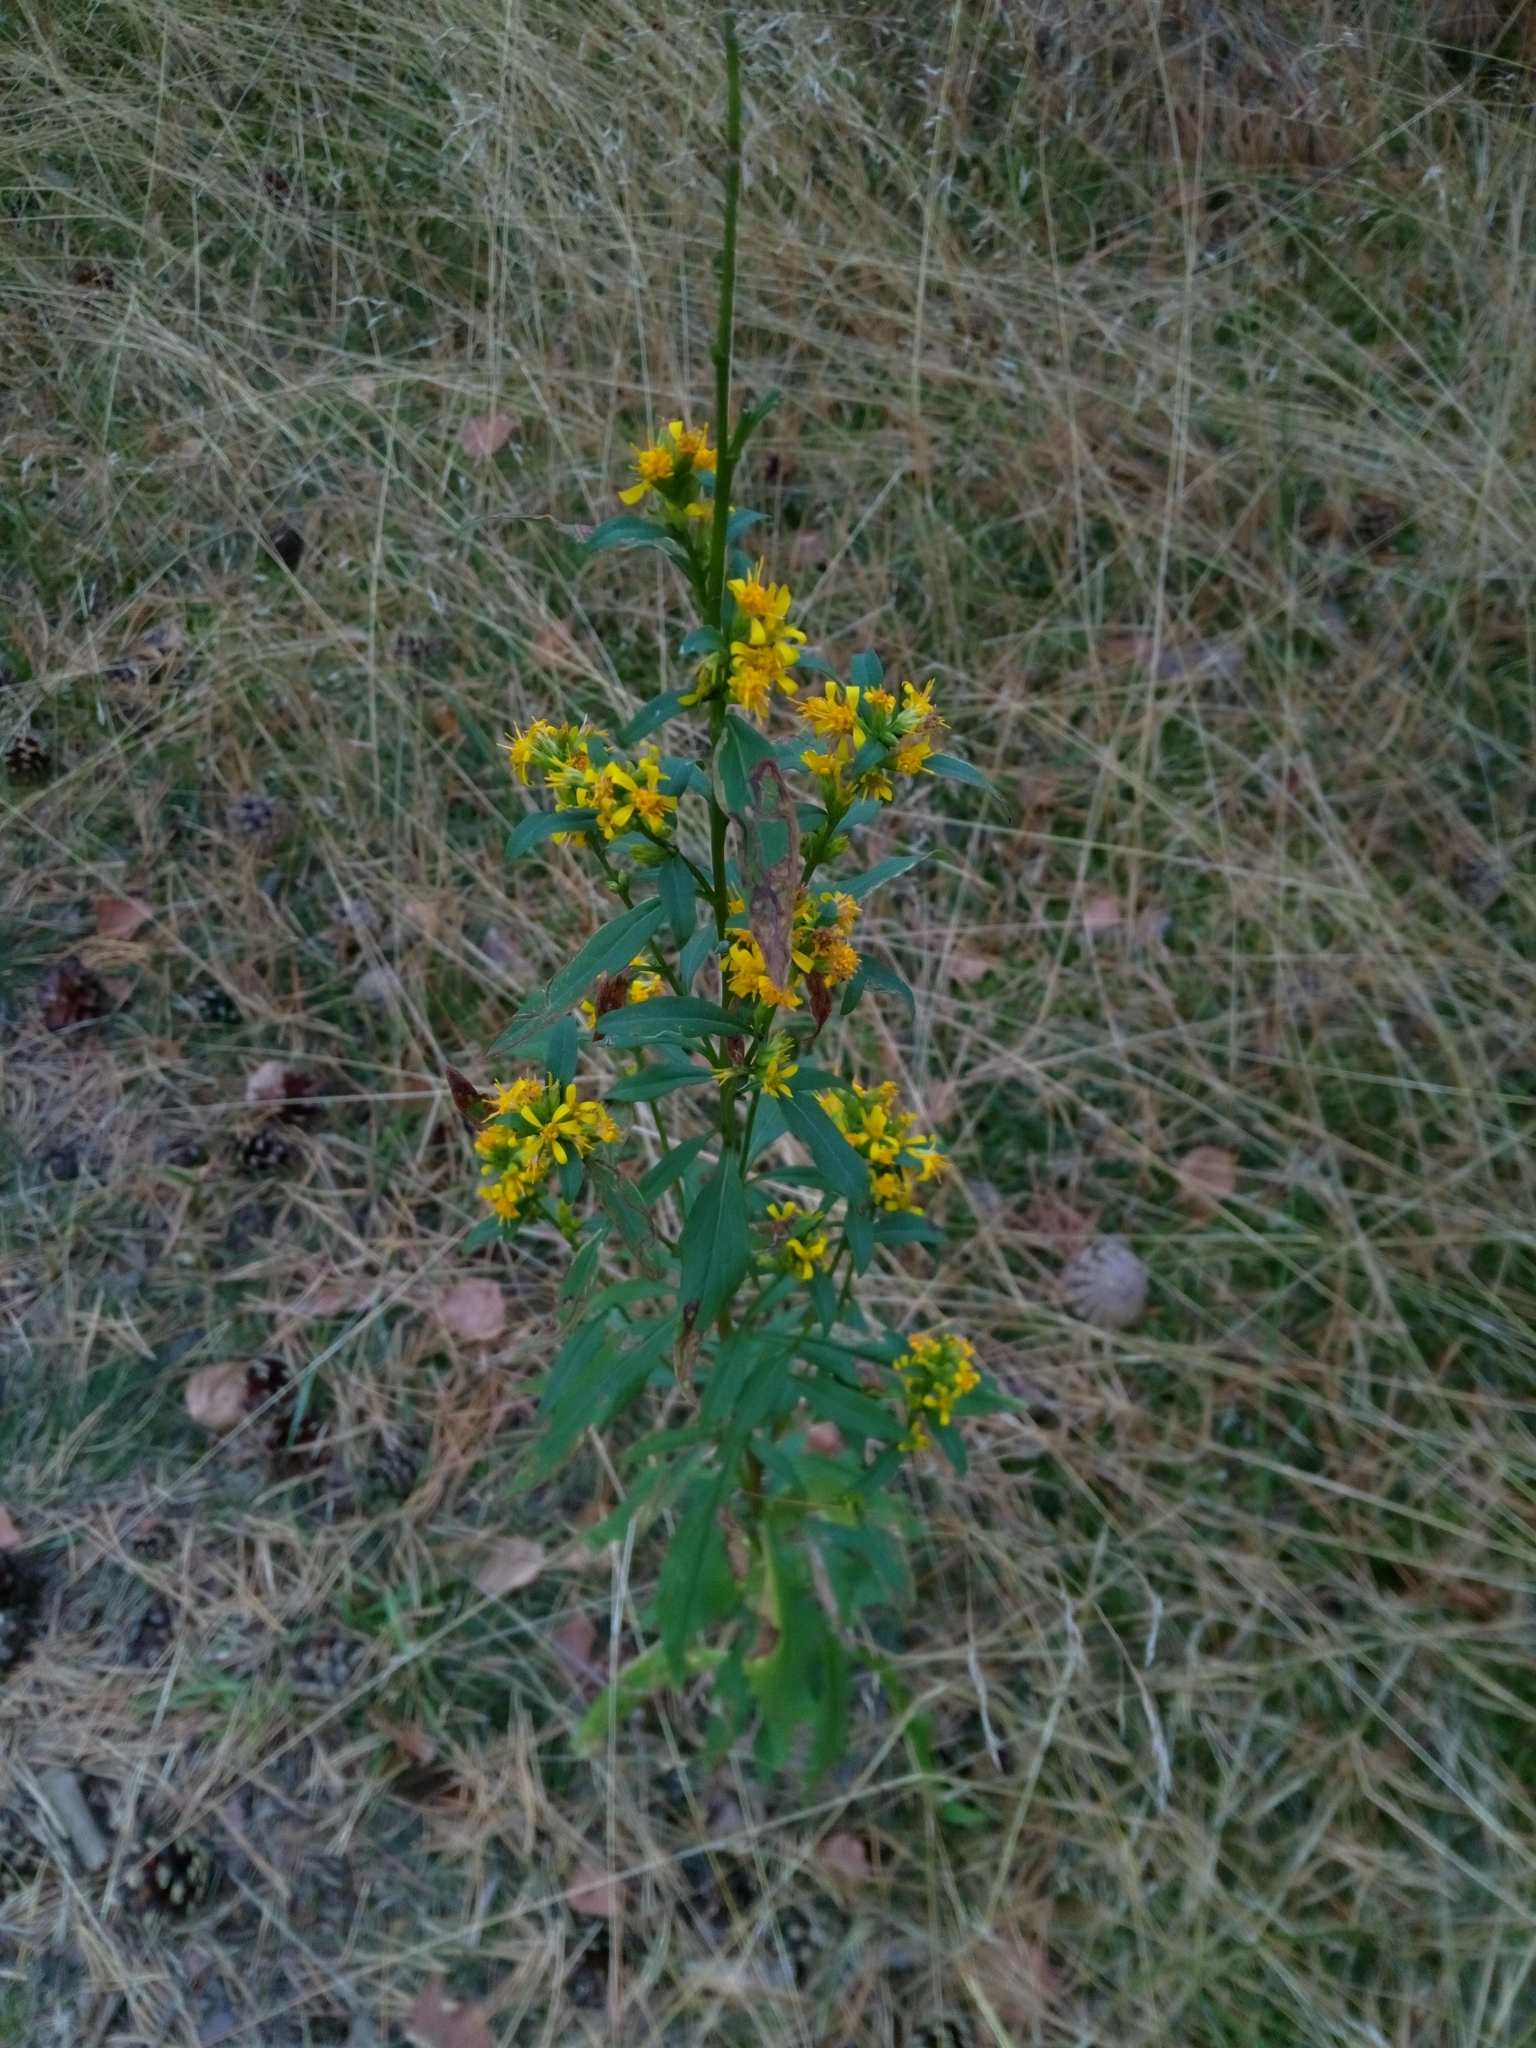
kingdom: Plantae
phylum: Tracheophyta
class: Magnoliopsida
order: Asterales
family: Asteraceae
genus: Solidago
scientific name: Solidago virgaurea
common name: Goldenrod
